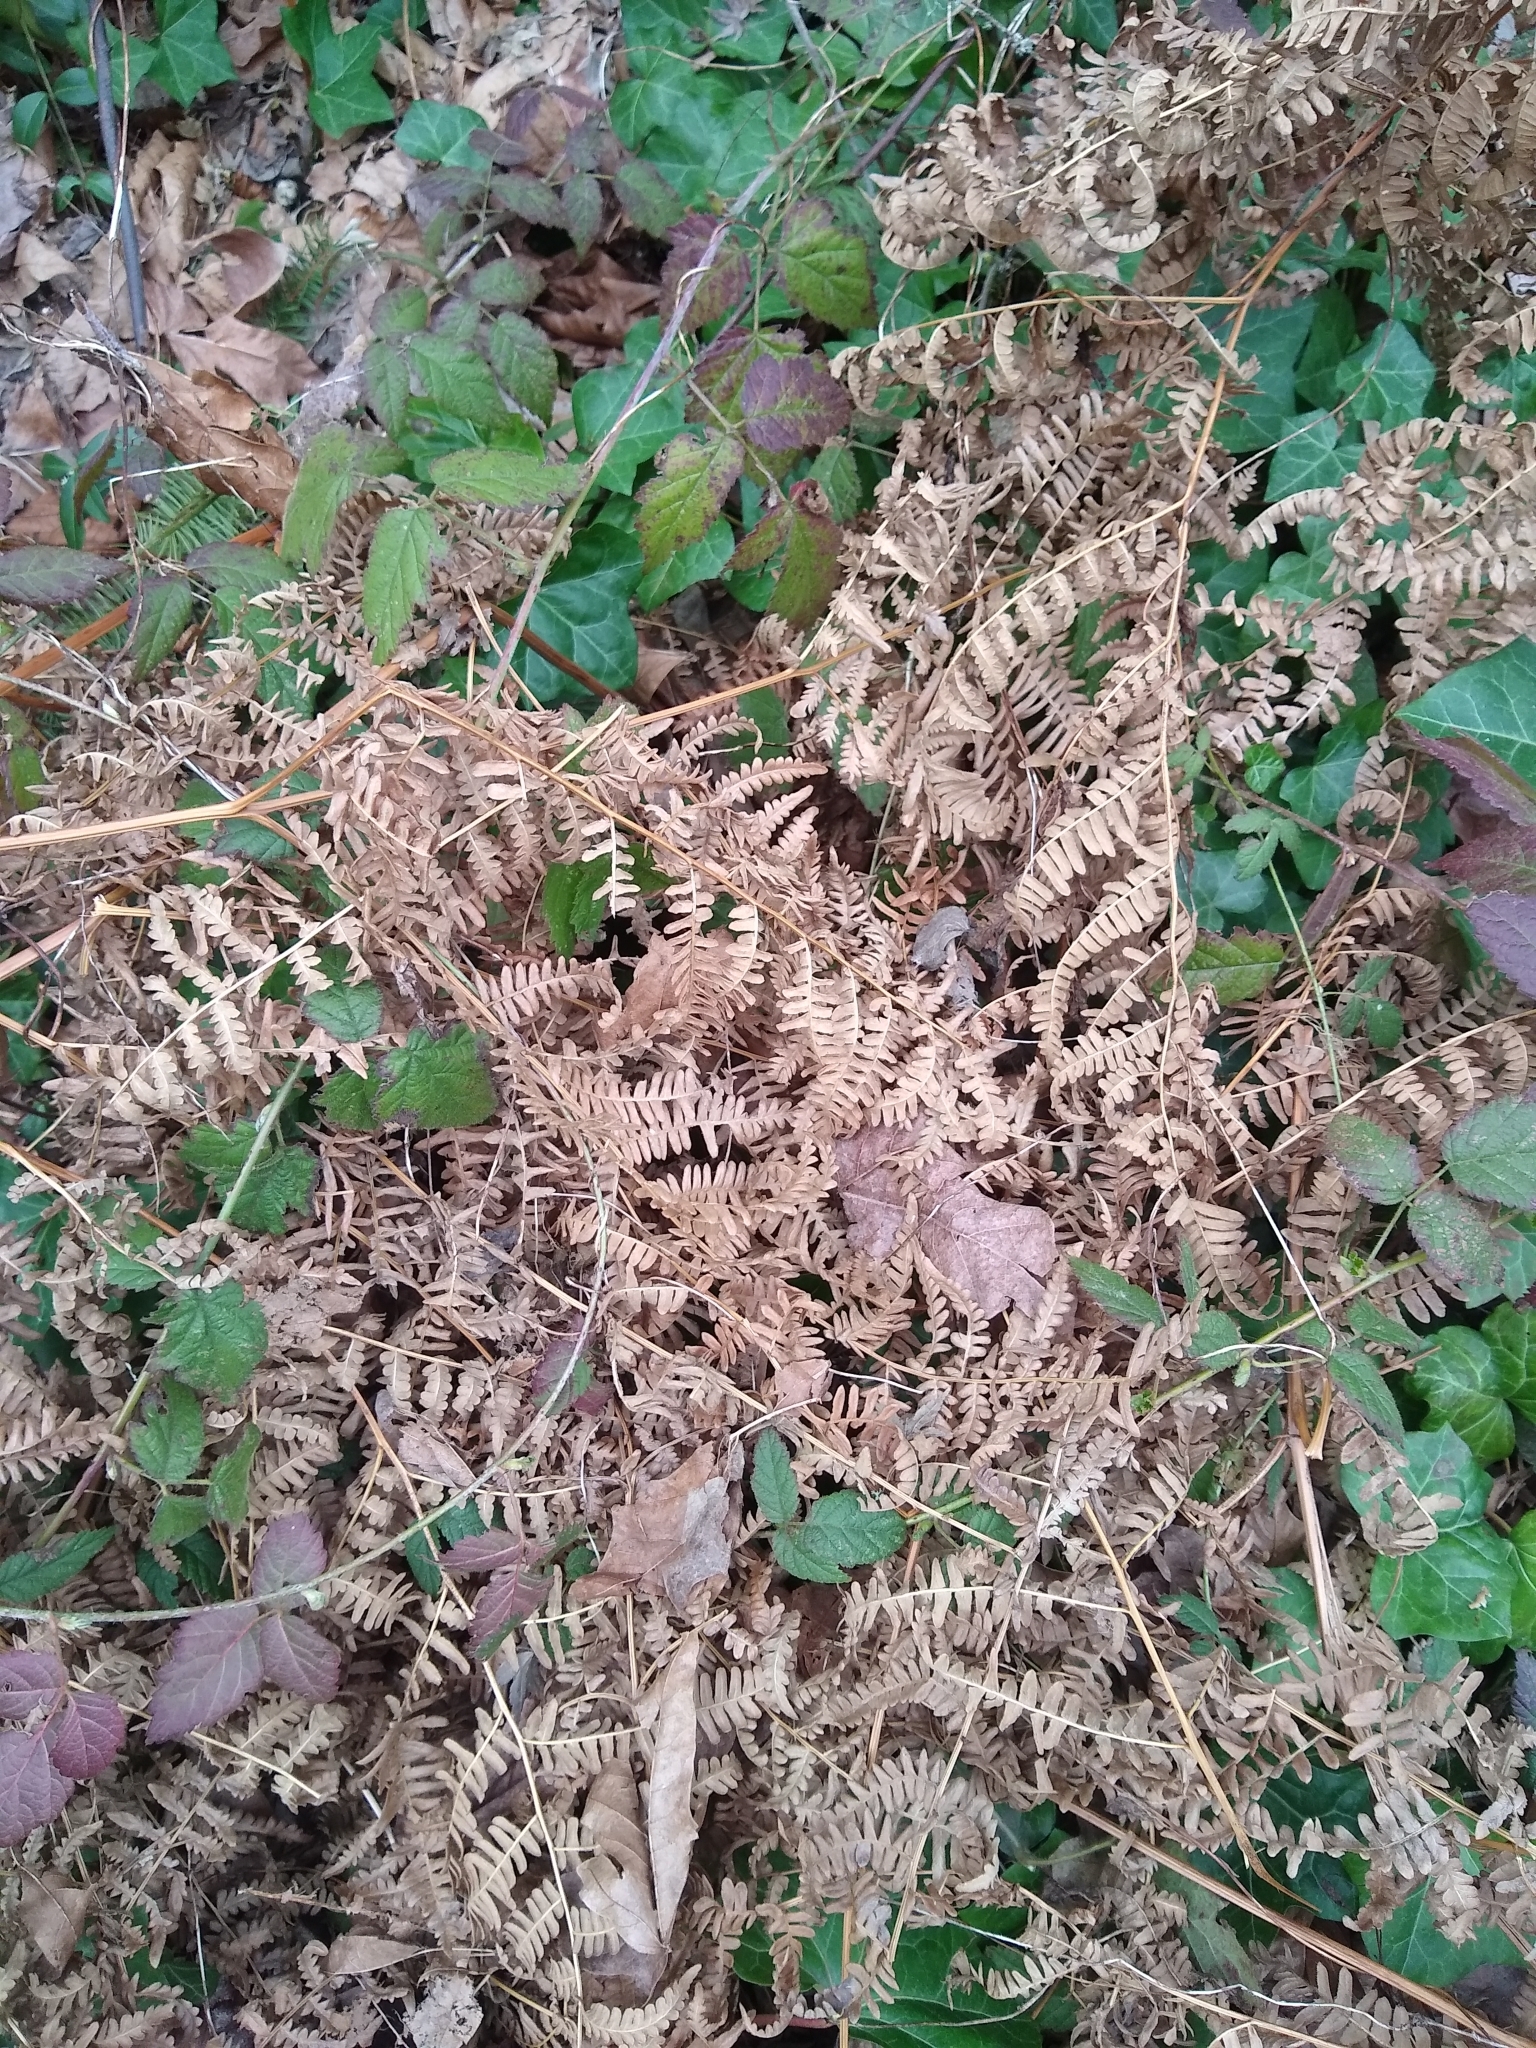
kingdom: Plantae
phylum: Tracheophyta
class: Polypodiopsida
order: Polypodiales
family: Dennstaedtiaceae
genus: Pteridium
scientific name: Pteridium aquilinum
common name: Bracken
